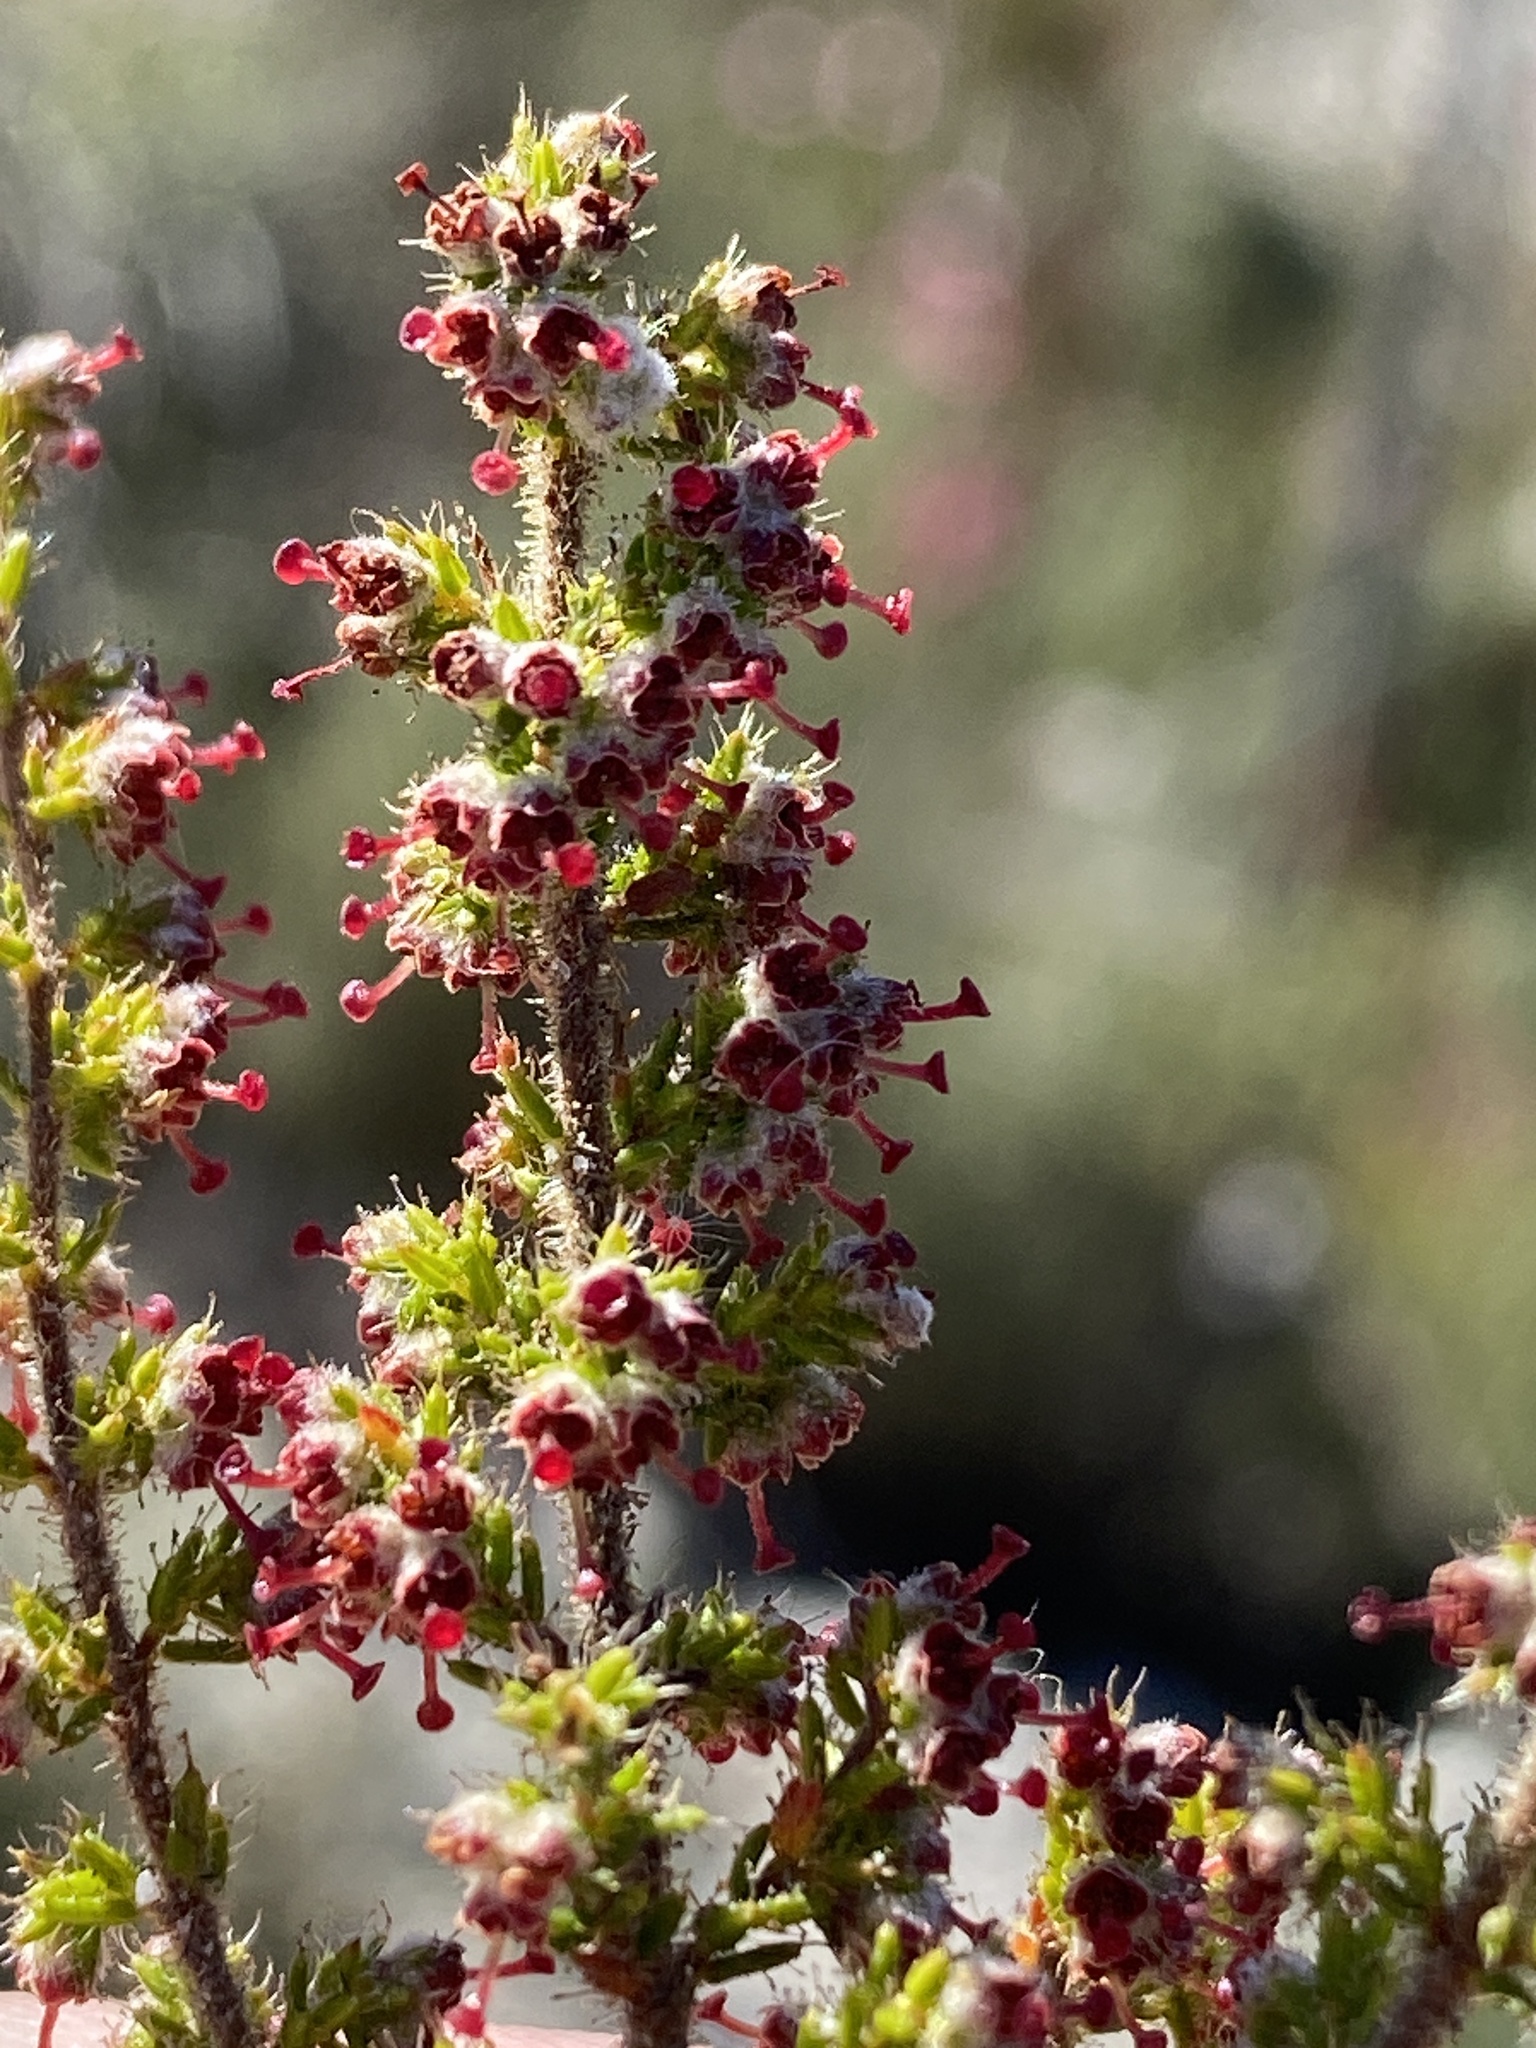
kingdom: Plantae
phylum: Tracheophyta
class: Magnoliopsida
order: Ericales
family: Ericaceae
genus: Erica
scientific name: Erica exleeana
